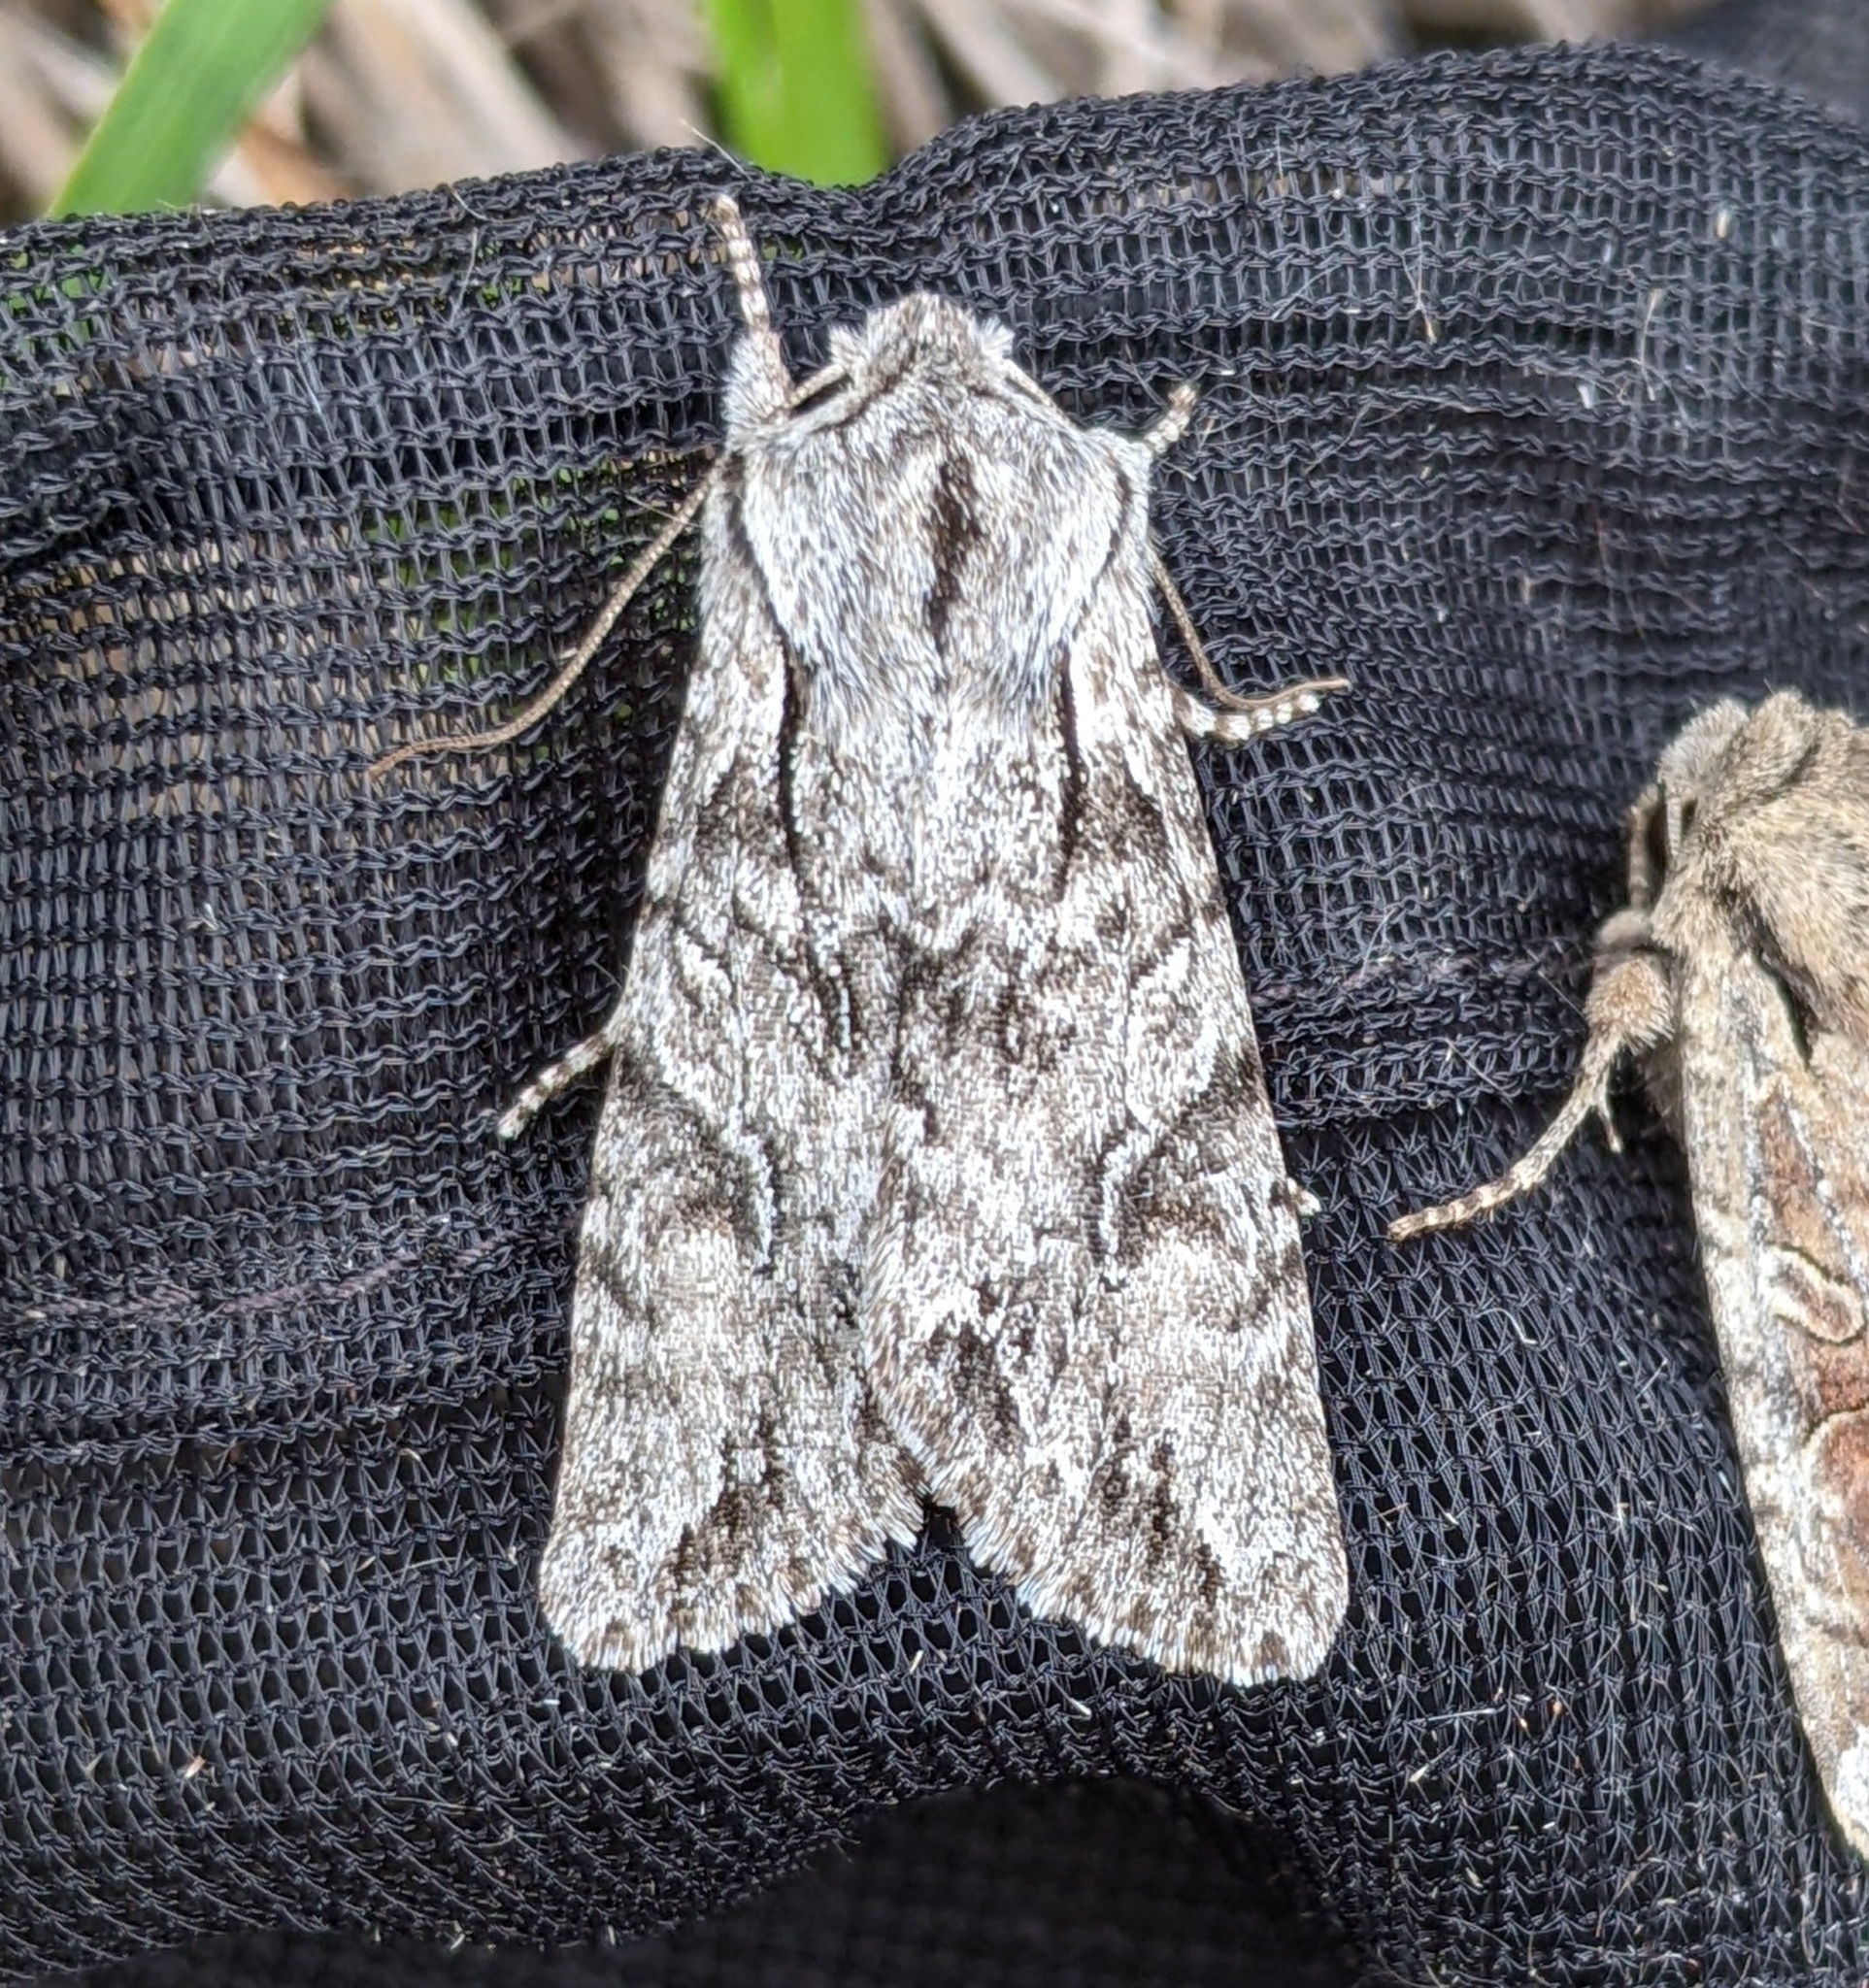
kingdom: Animalia
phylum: Arthropoda
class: Insecta
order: Lepidoptera
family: Noctuidae
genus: Egira
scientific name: Egira simplex
